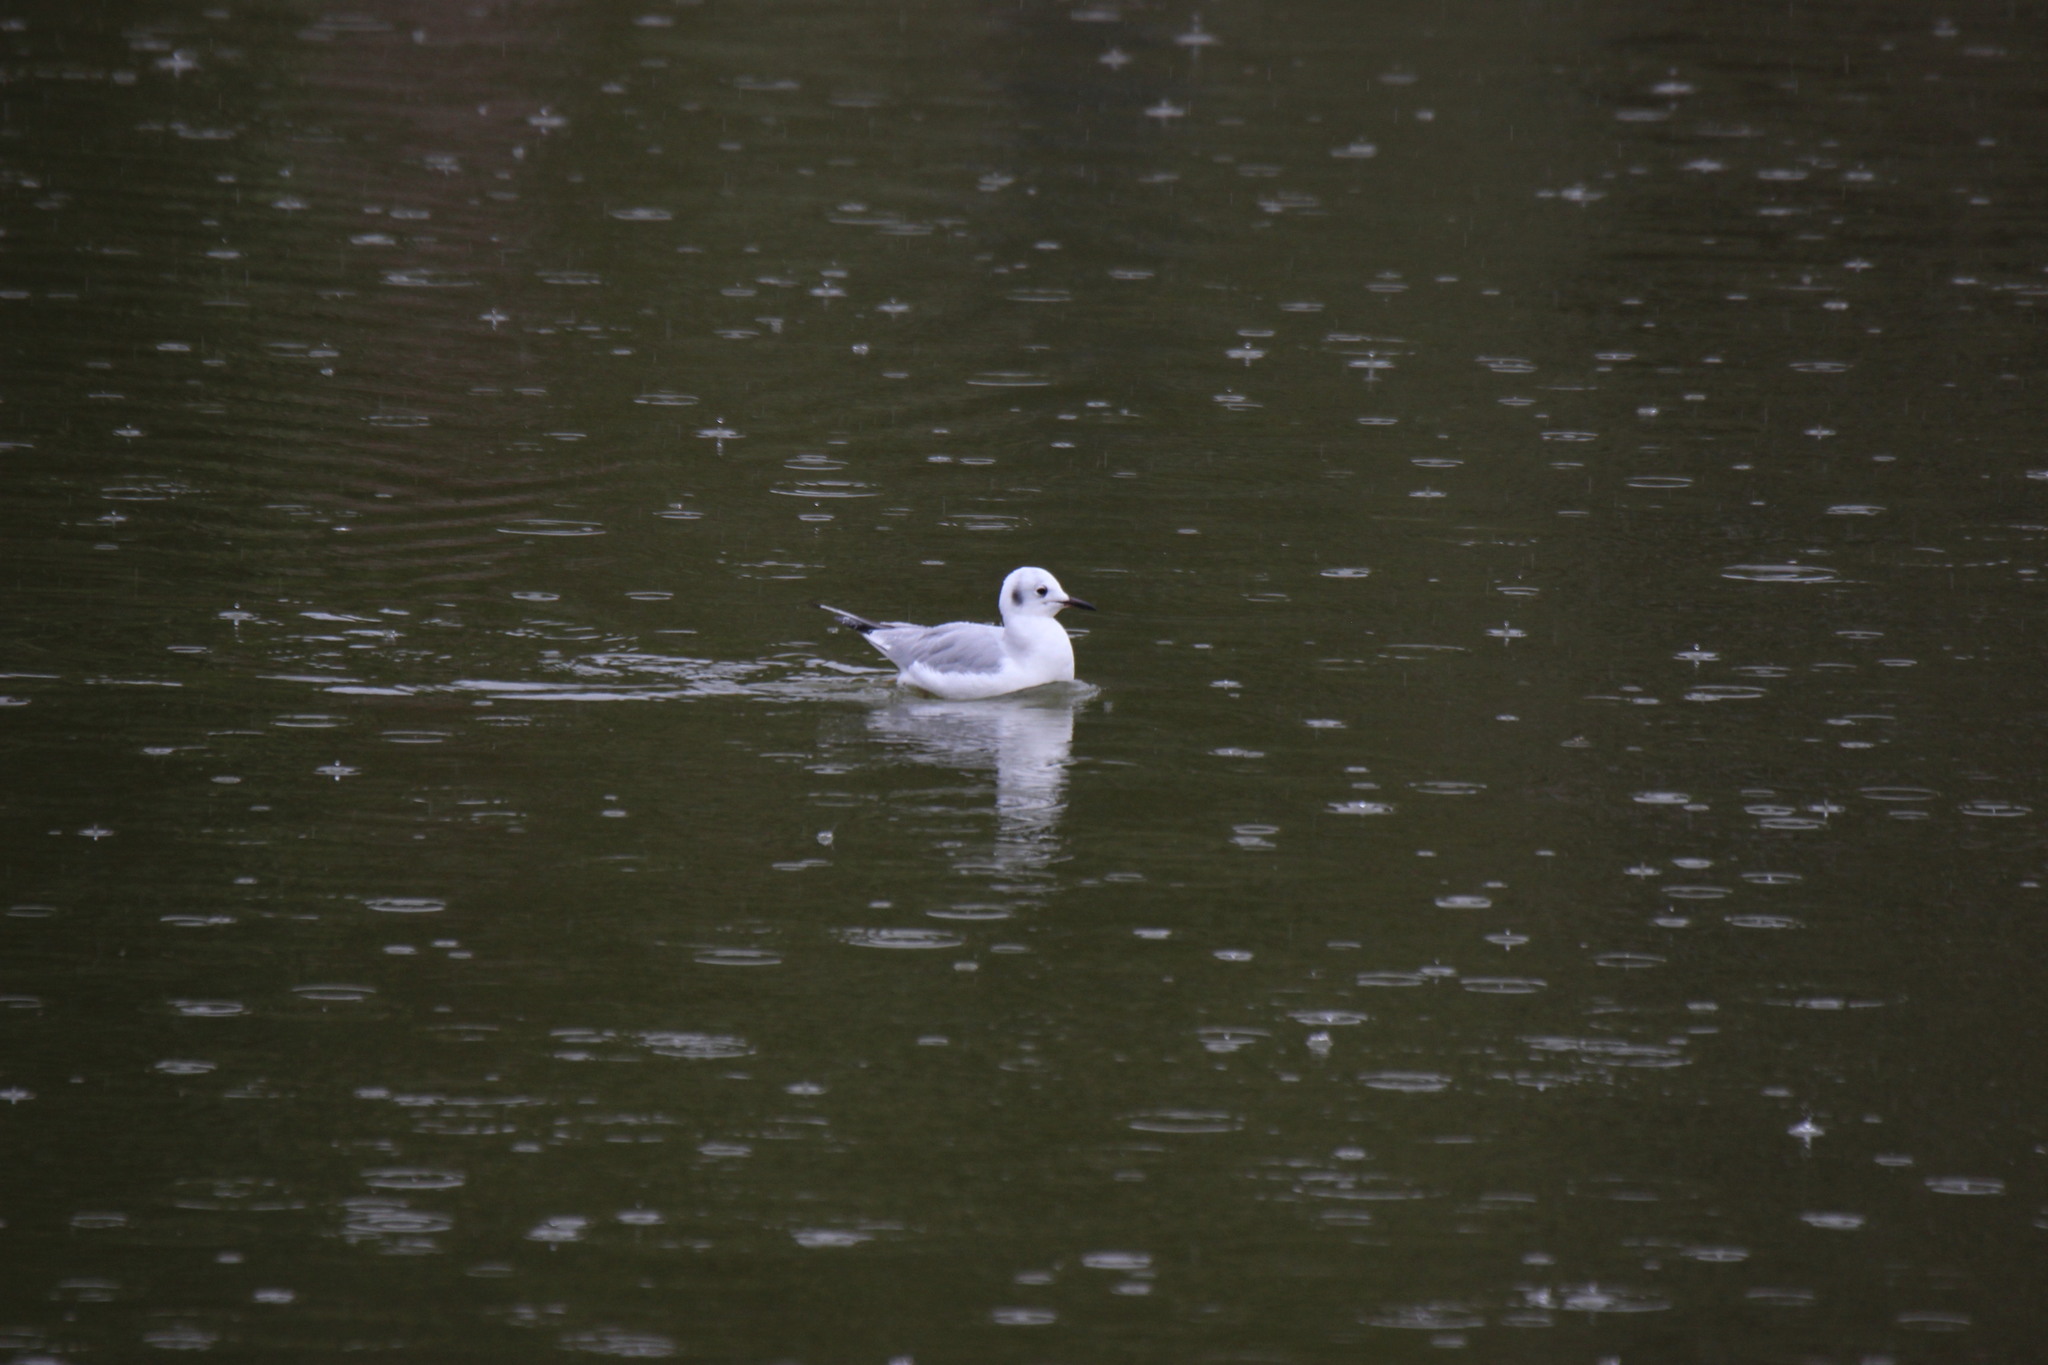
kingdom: Animalia
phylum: Chordata
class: Aves
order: Charadriiformes
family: Laridae
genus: Chroicocephalus
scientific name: Chroicocephalus philadelphia
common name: Bonaparte's gull
